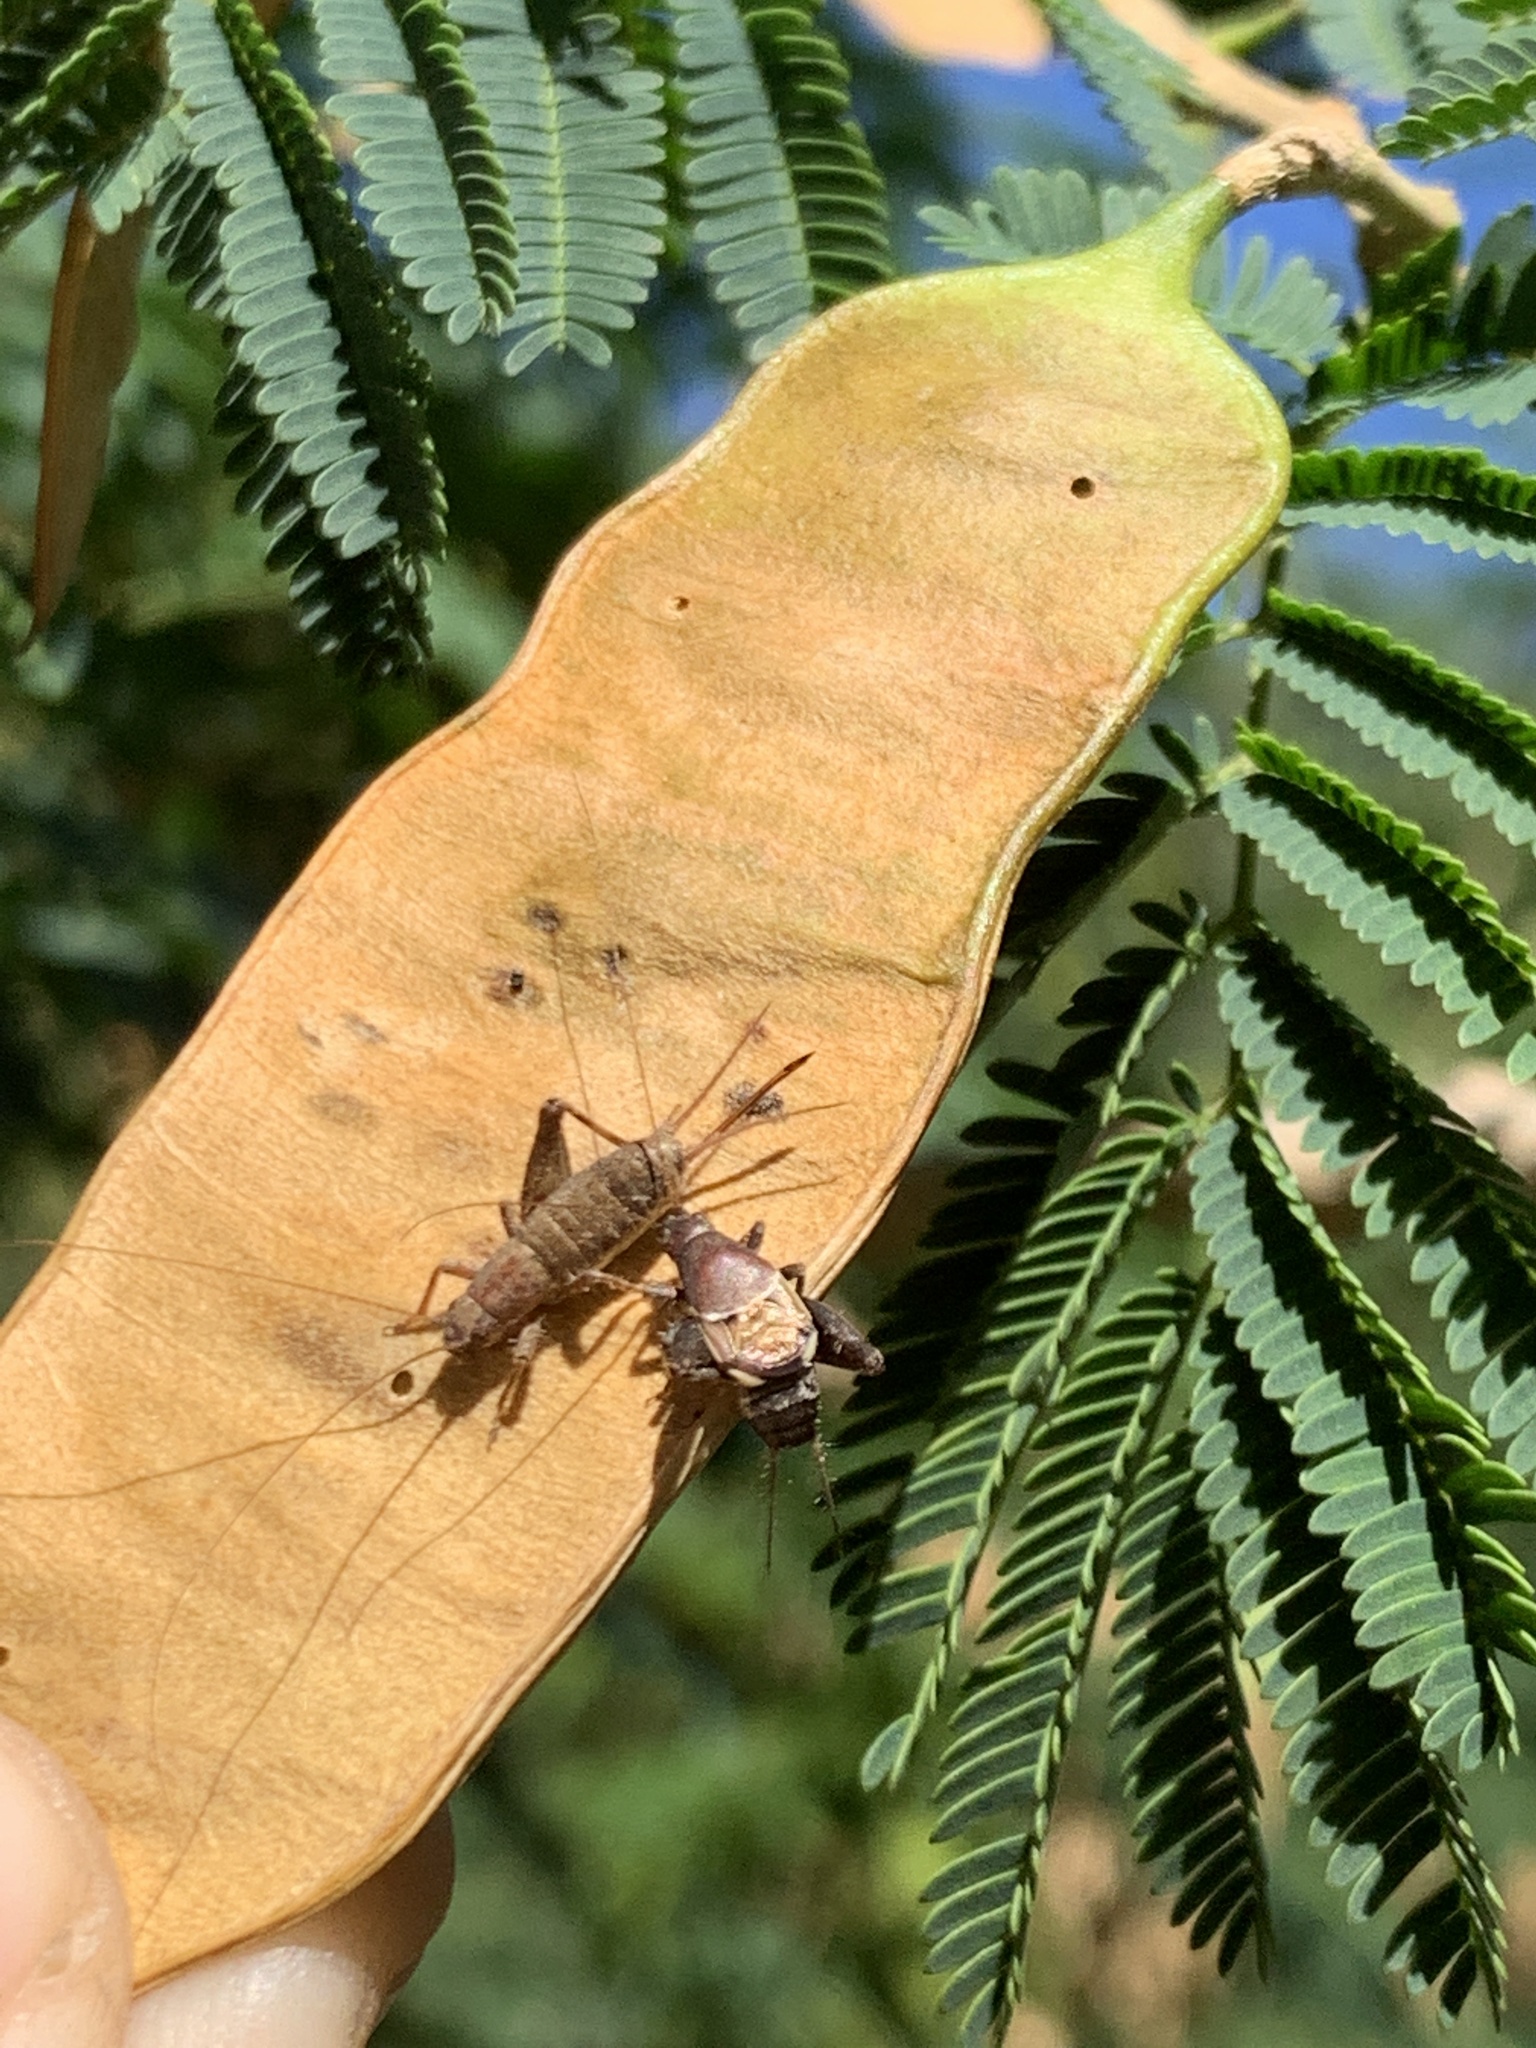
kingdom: Animalia
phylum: Arthropoda
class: Insecta
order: Orthoptera
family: Mogoplistidae
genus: Ornebius
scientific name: Ornebius alatus
